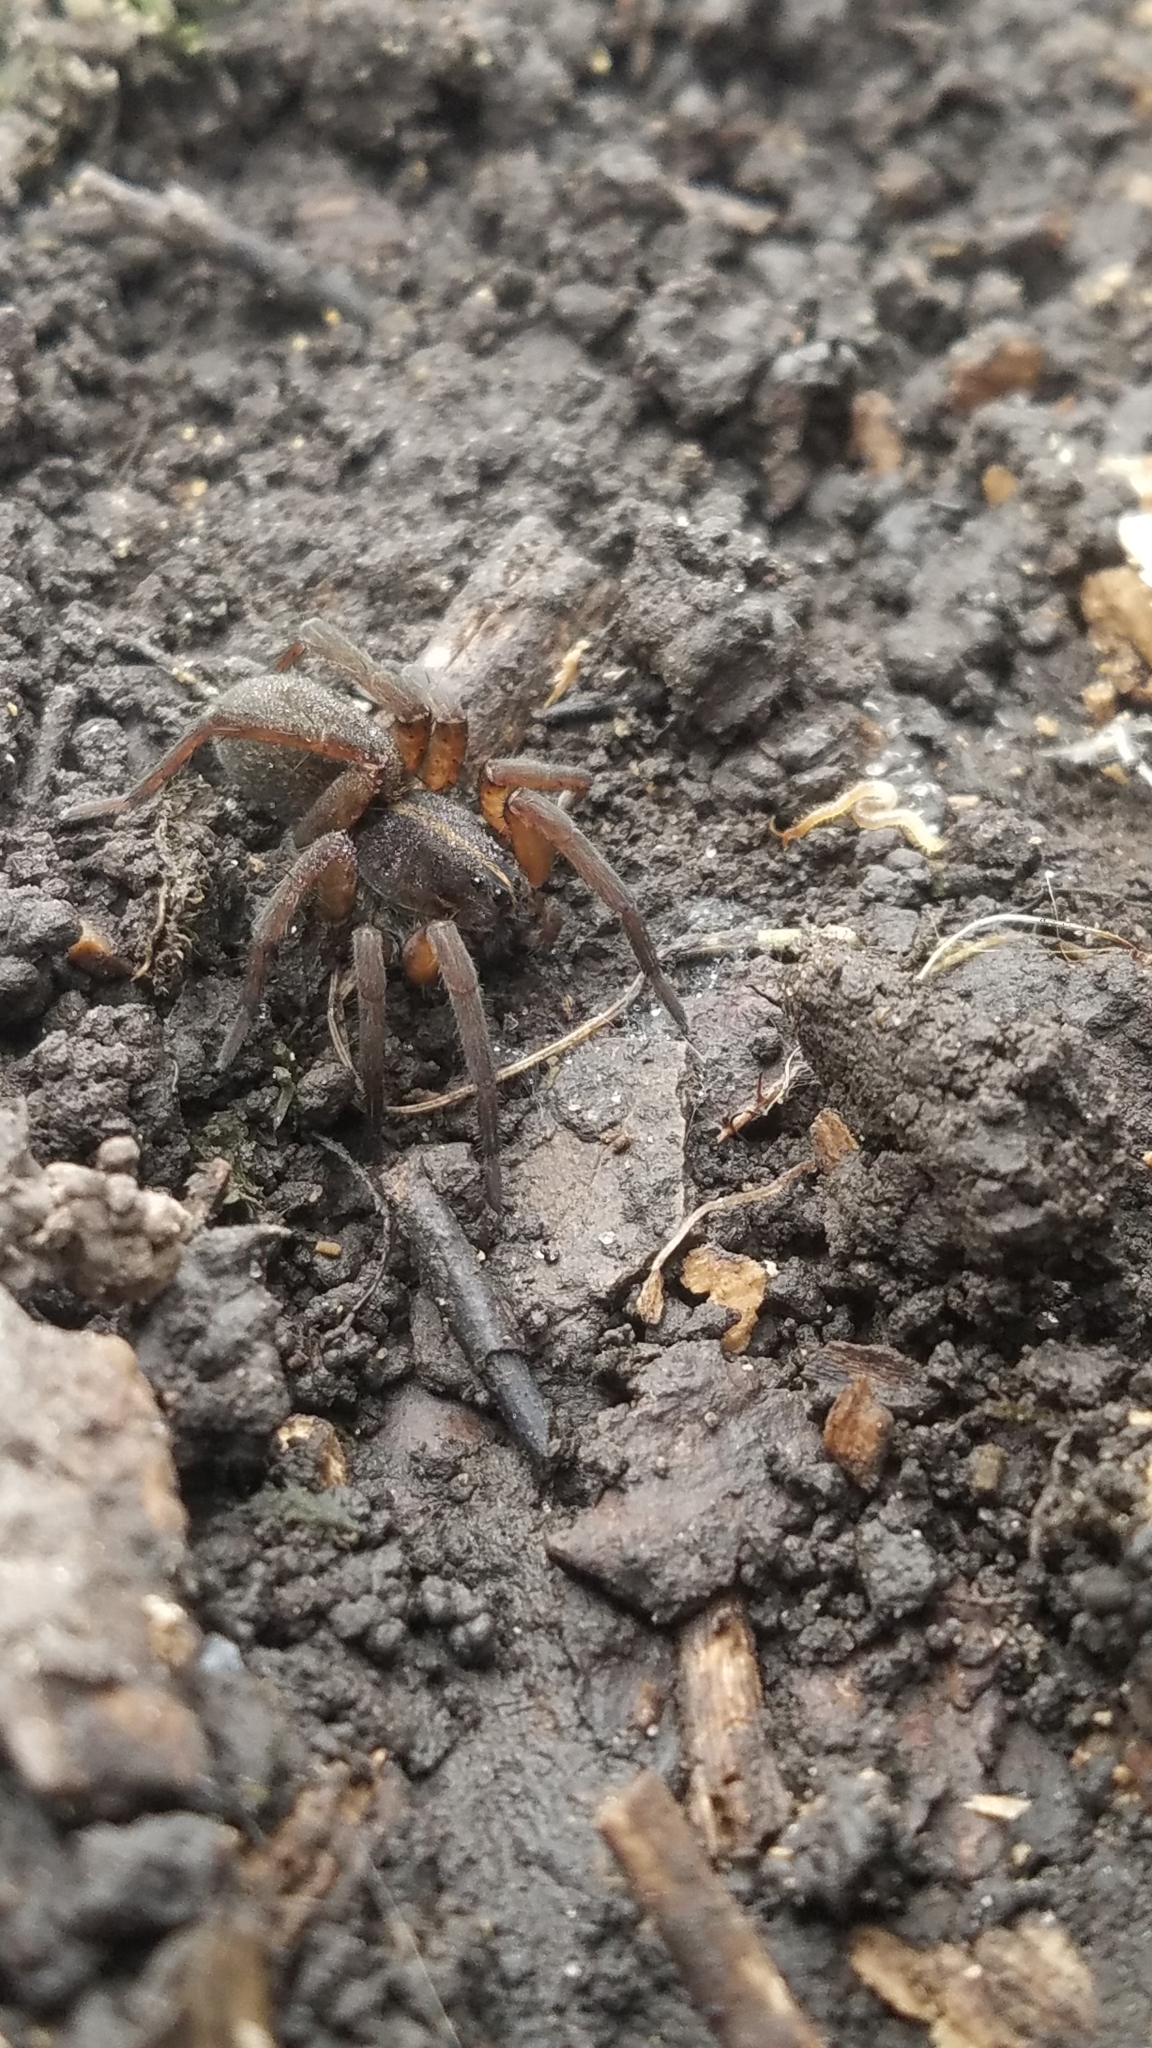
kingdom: Animalia
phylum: Arthropoda
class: Arachnida
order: Araneae
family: Lycosidae
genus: Tigrosa
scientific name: Tigrosa helluo
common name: Wetland giant wolf spider
